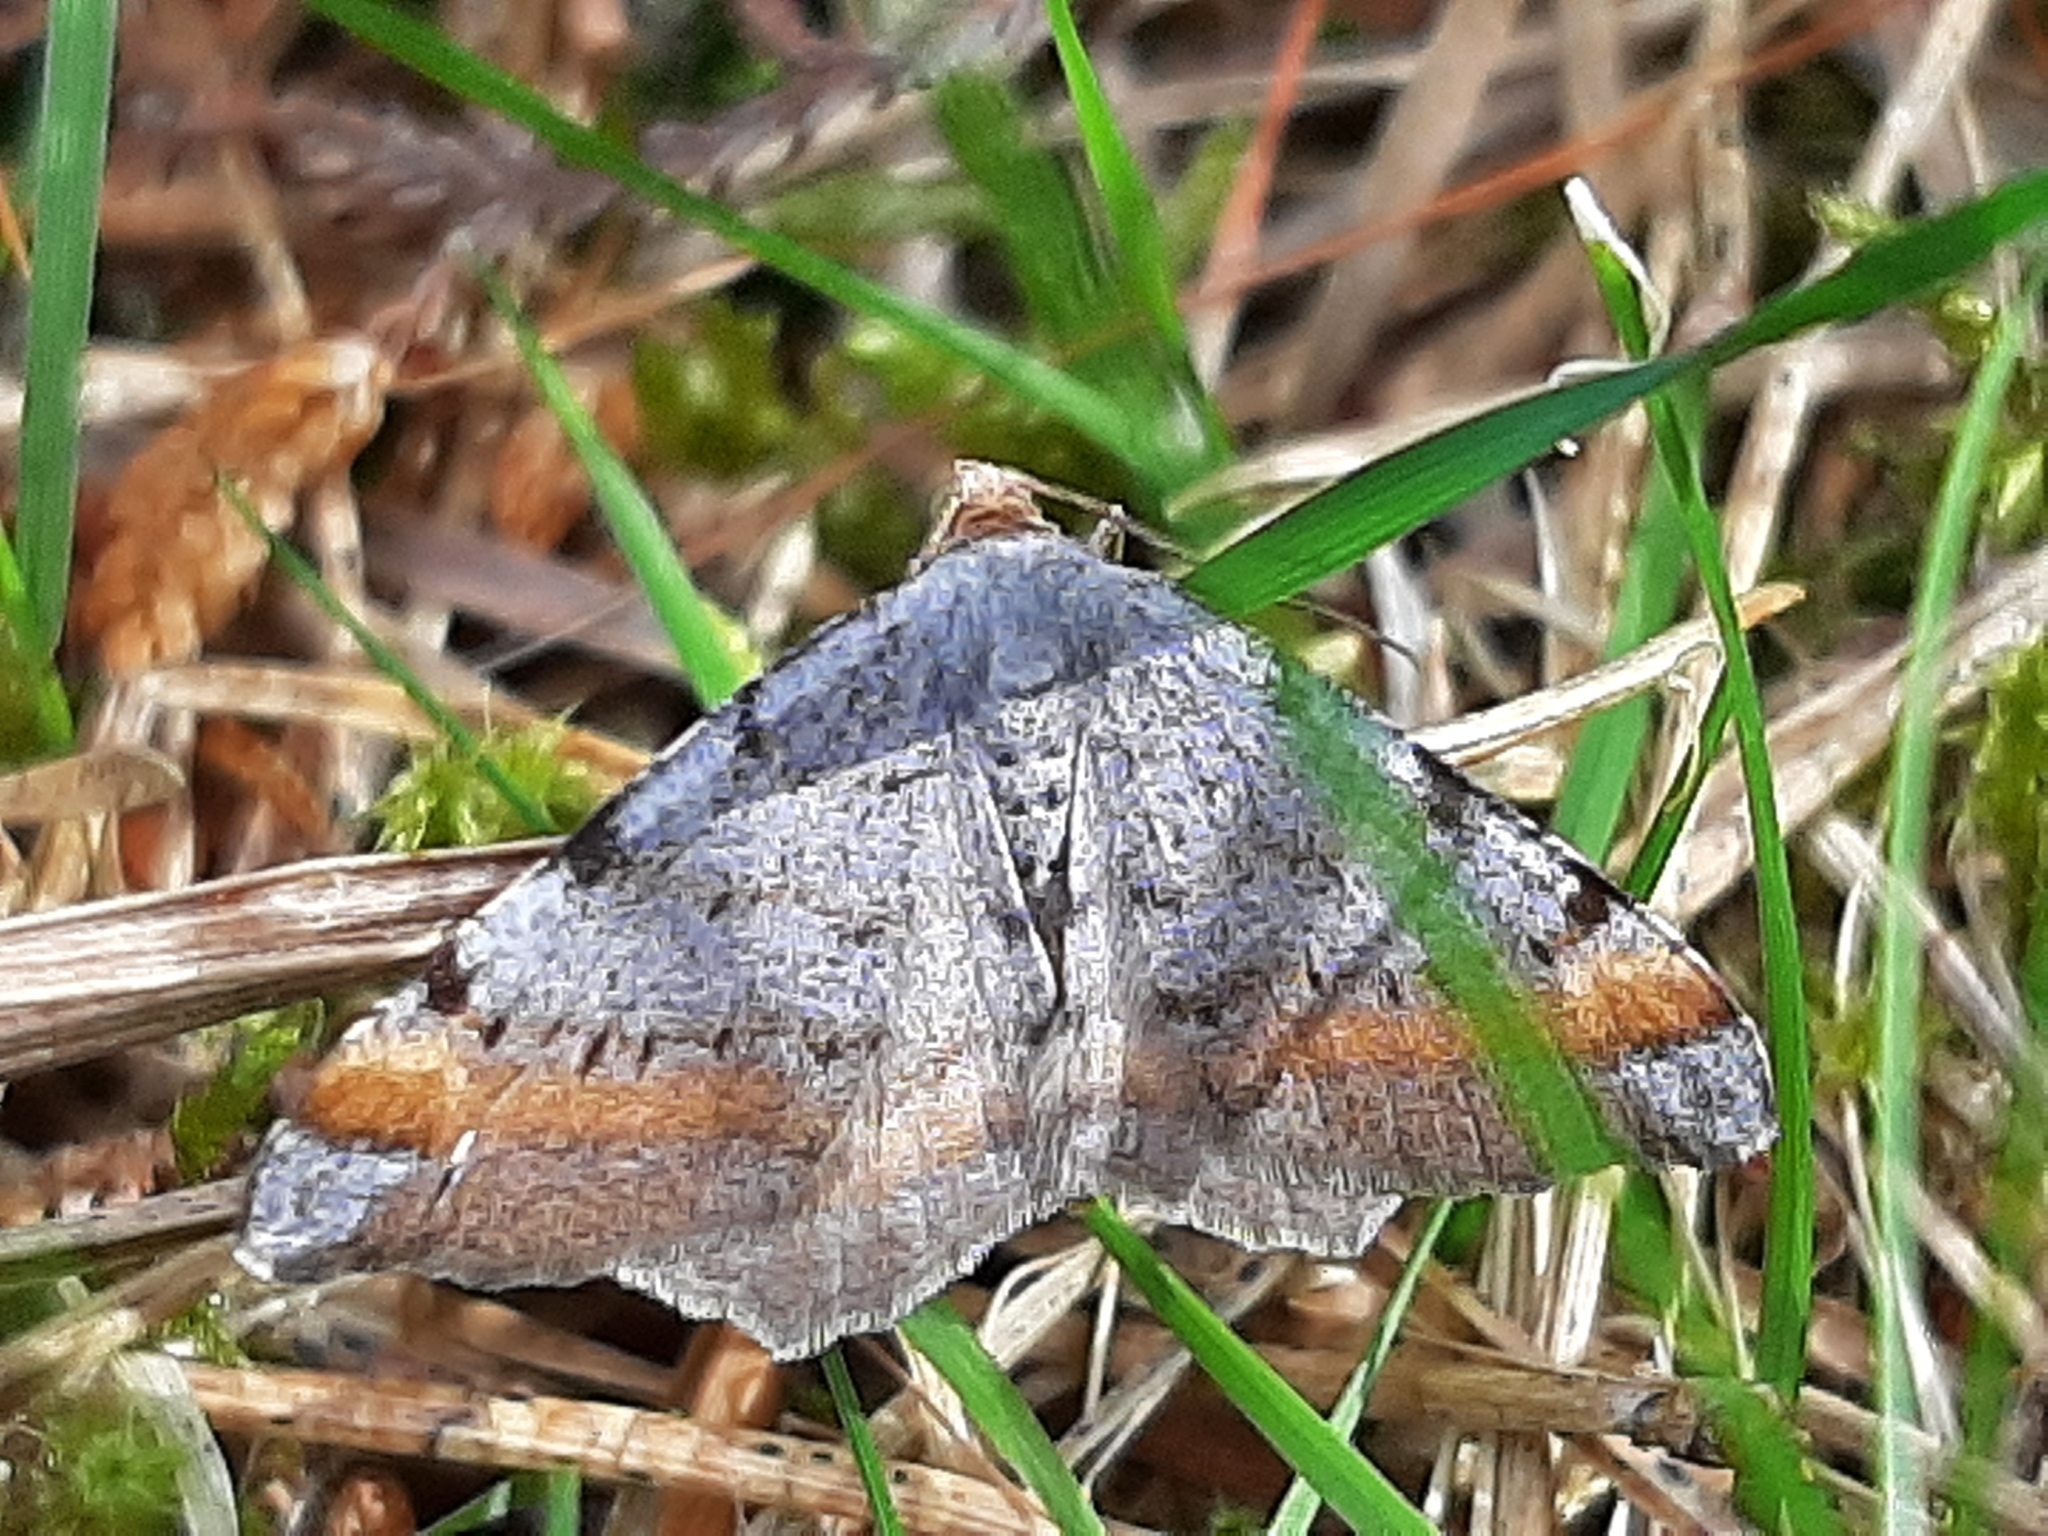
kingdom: Animalia
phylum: Arthropoda
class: Insecta
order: Lepidoptera
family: Geometridae
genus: Macaria
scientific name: Macaria liturata
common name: Tawny-barred angle
